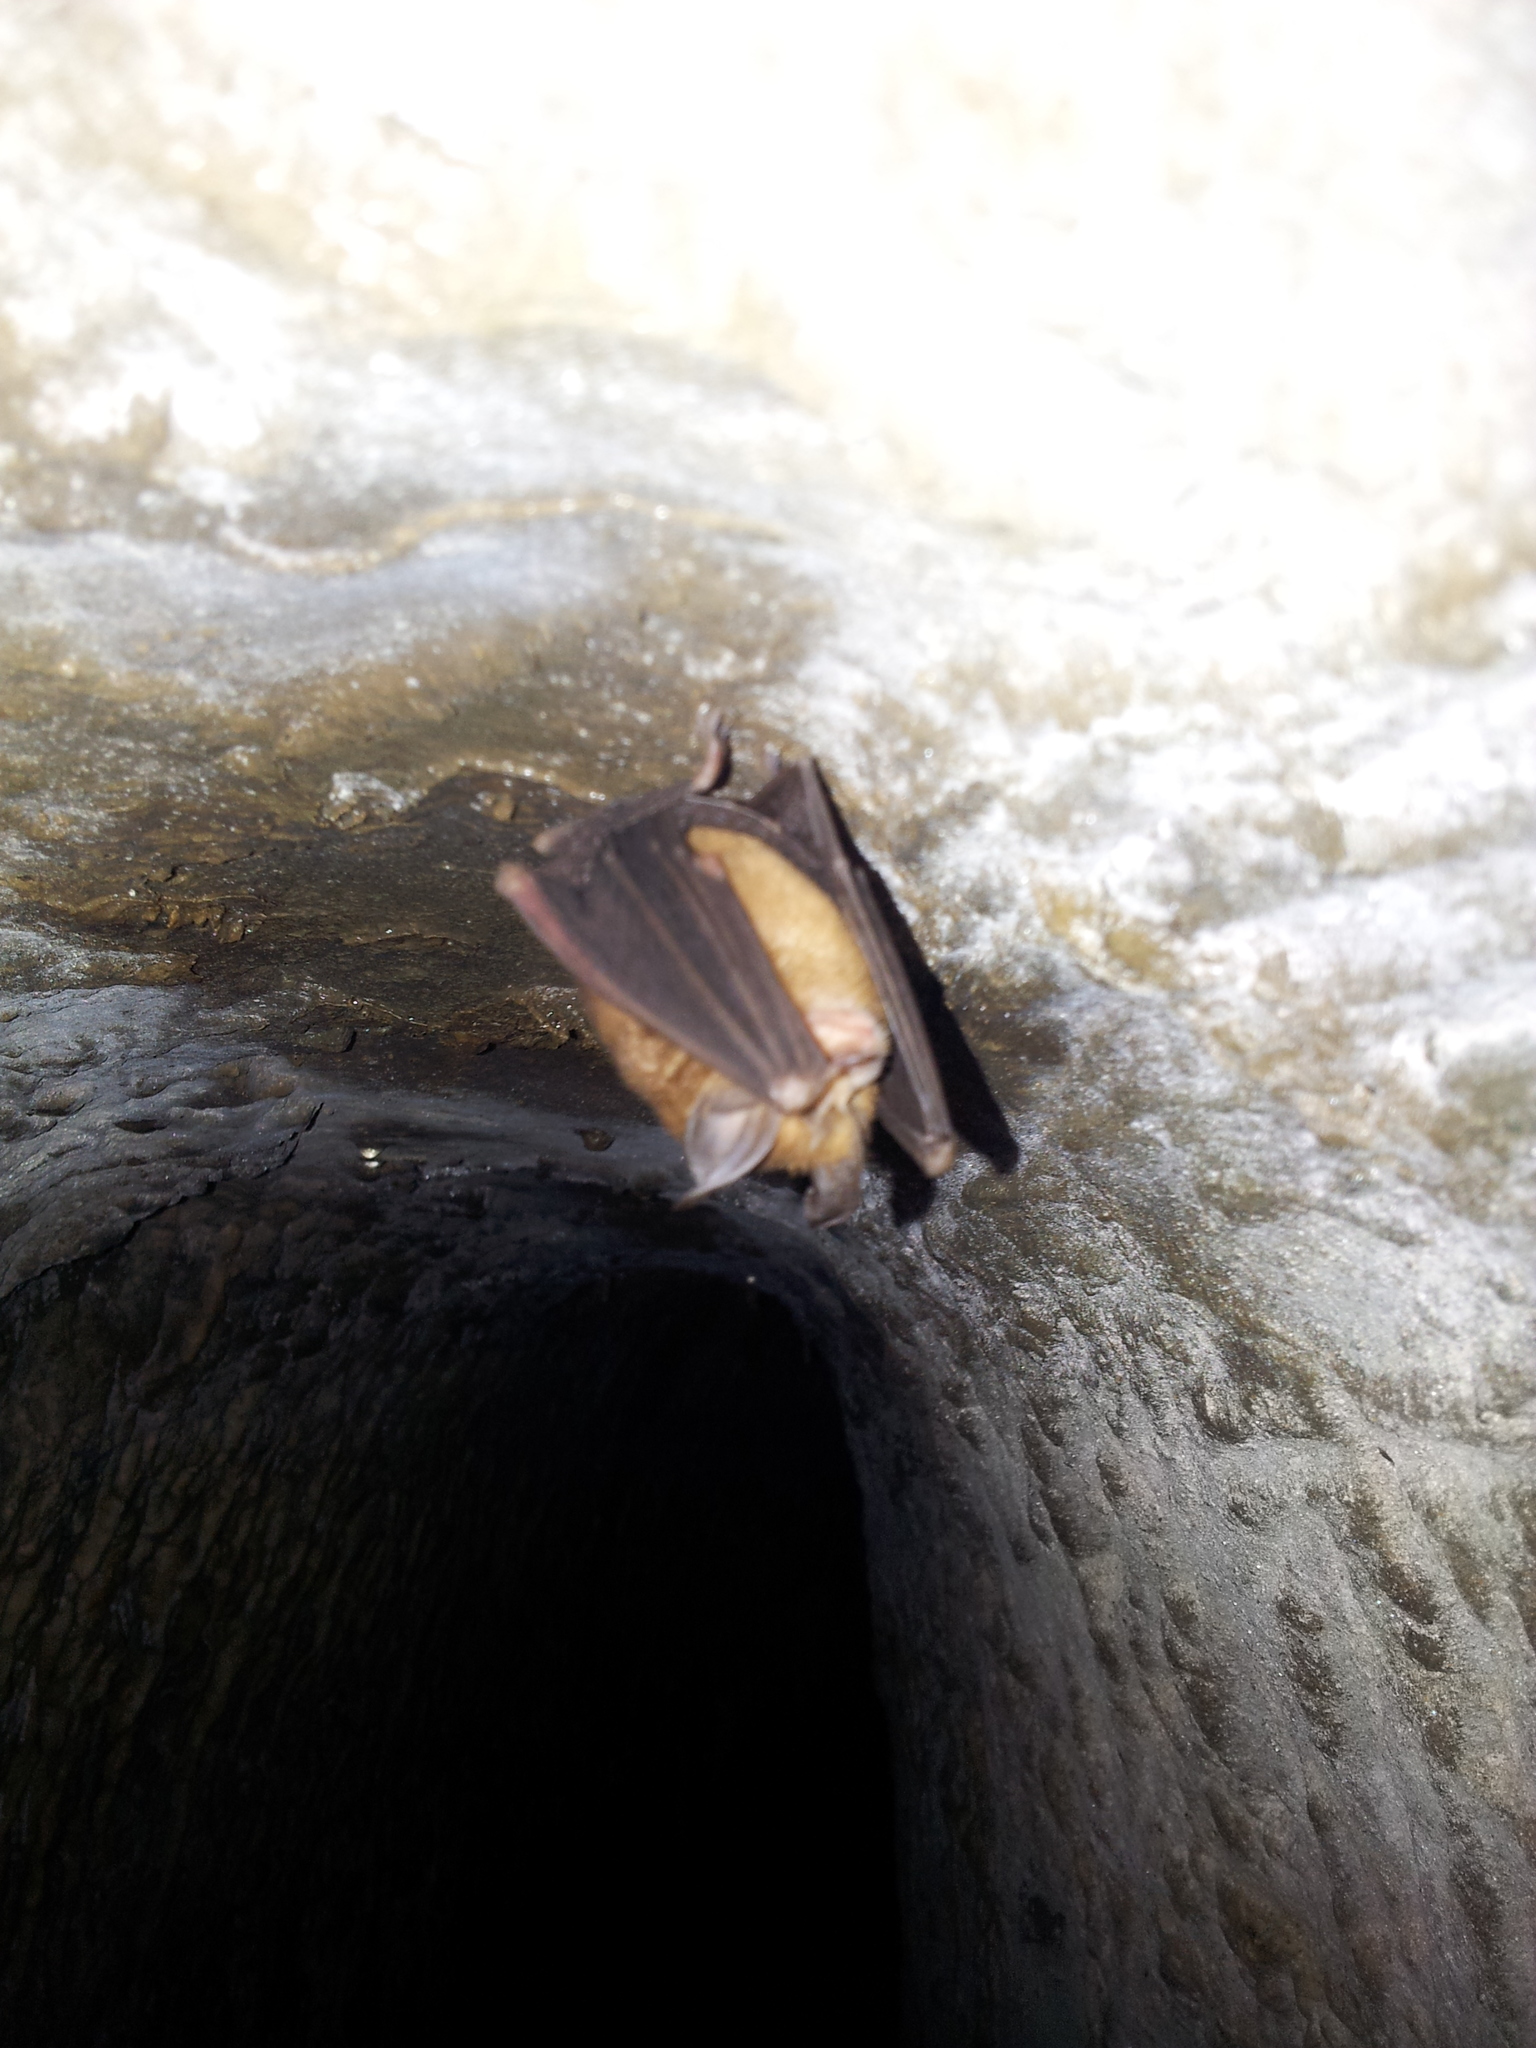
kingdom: Animalia
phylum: Chordata
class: Mammalia
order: Chiroptera
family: Rhinolophidae
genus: Rhinolophus
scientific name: Rhinolophus monoceros
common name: Formosan lesser horseshoe bat
